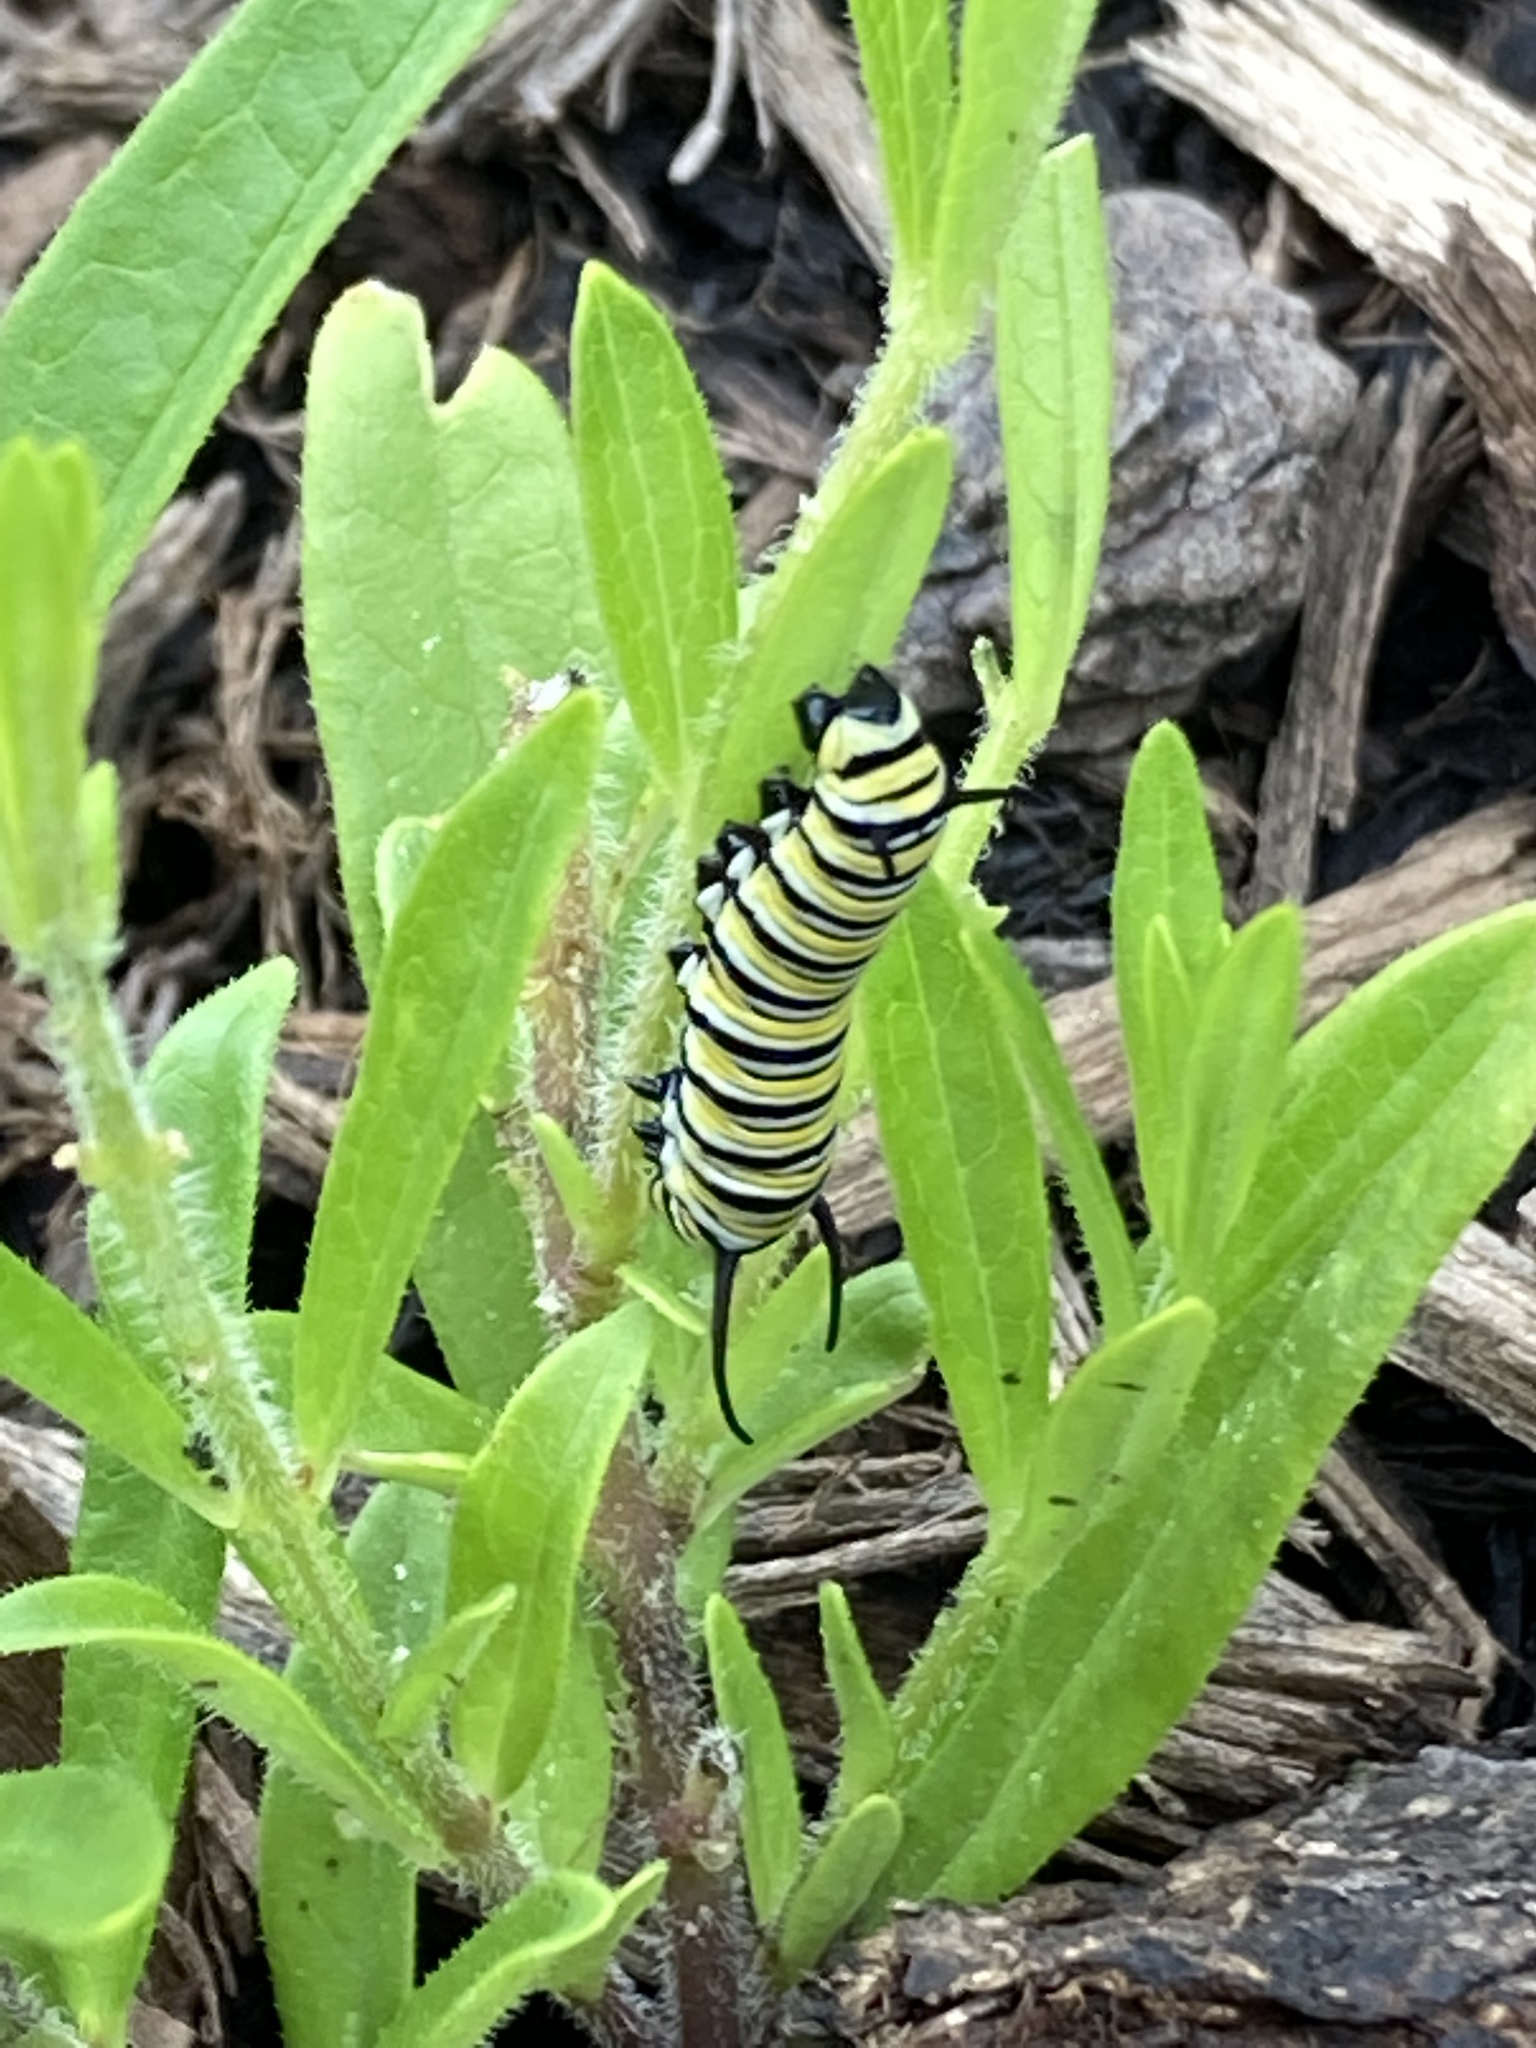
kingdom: Animalia
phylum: Arthropoda
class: Insecta
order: Lepidoptera
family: Nymphalidae
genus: Danaus
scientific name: Danaus plexippus
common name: Monarch
